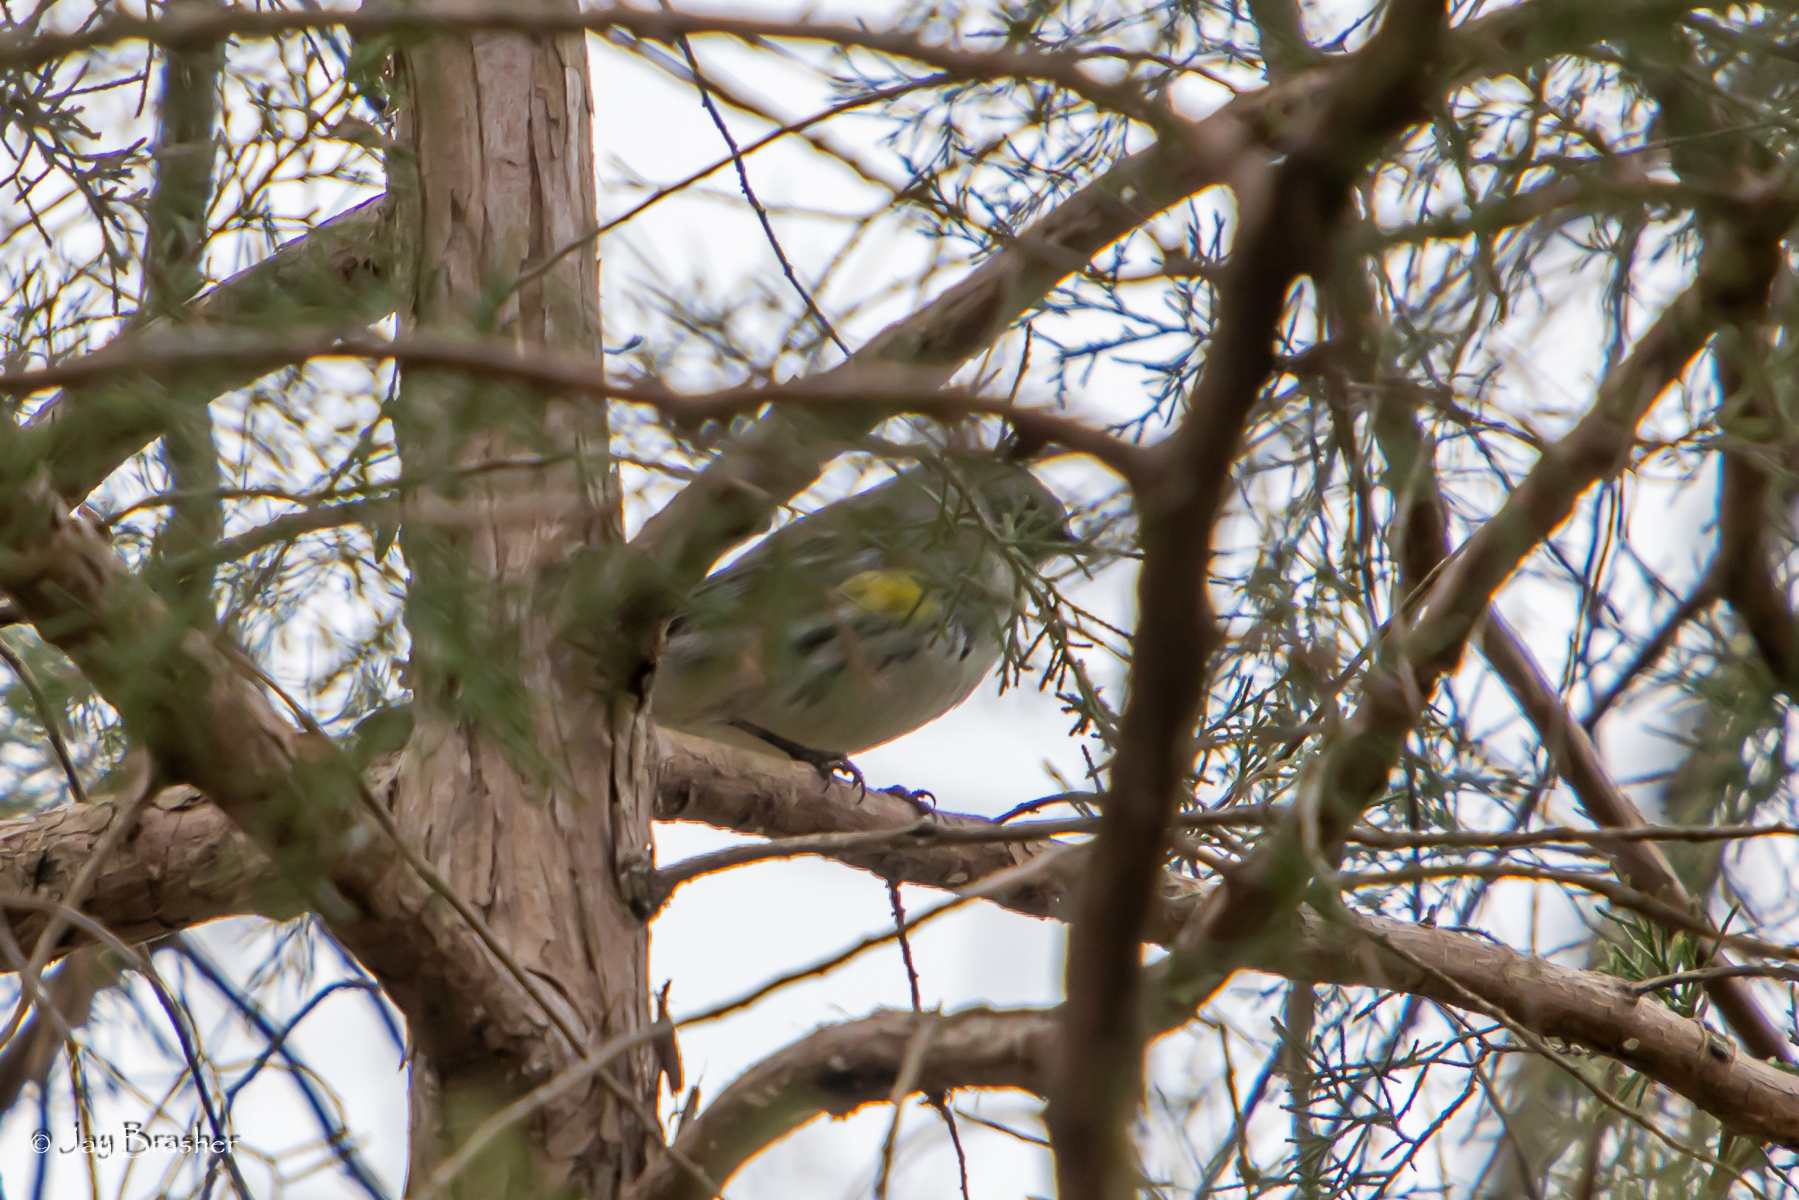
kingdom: Animalia
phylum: Chordata
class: Aves
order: Passeriformes
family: Parulidae
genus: Setophaga
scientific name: Setophaga coronata
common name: Myrtle warbler
